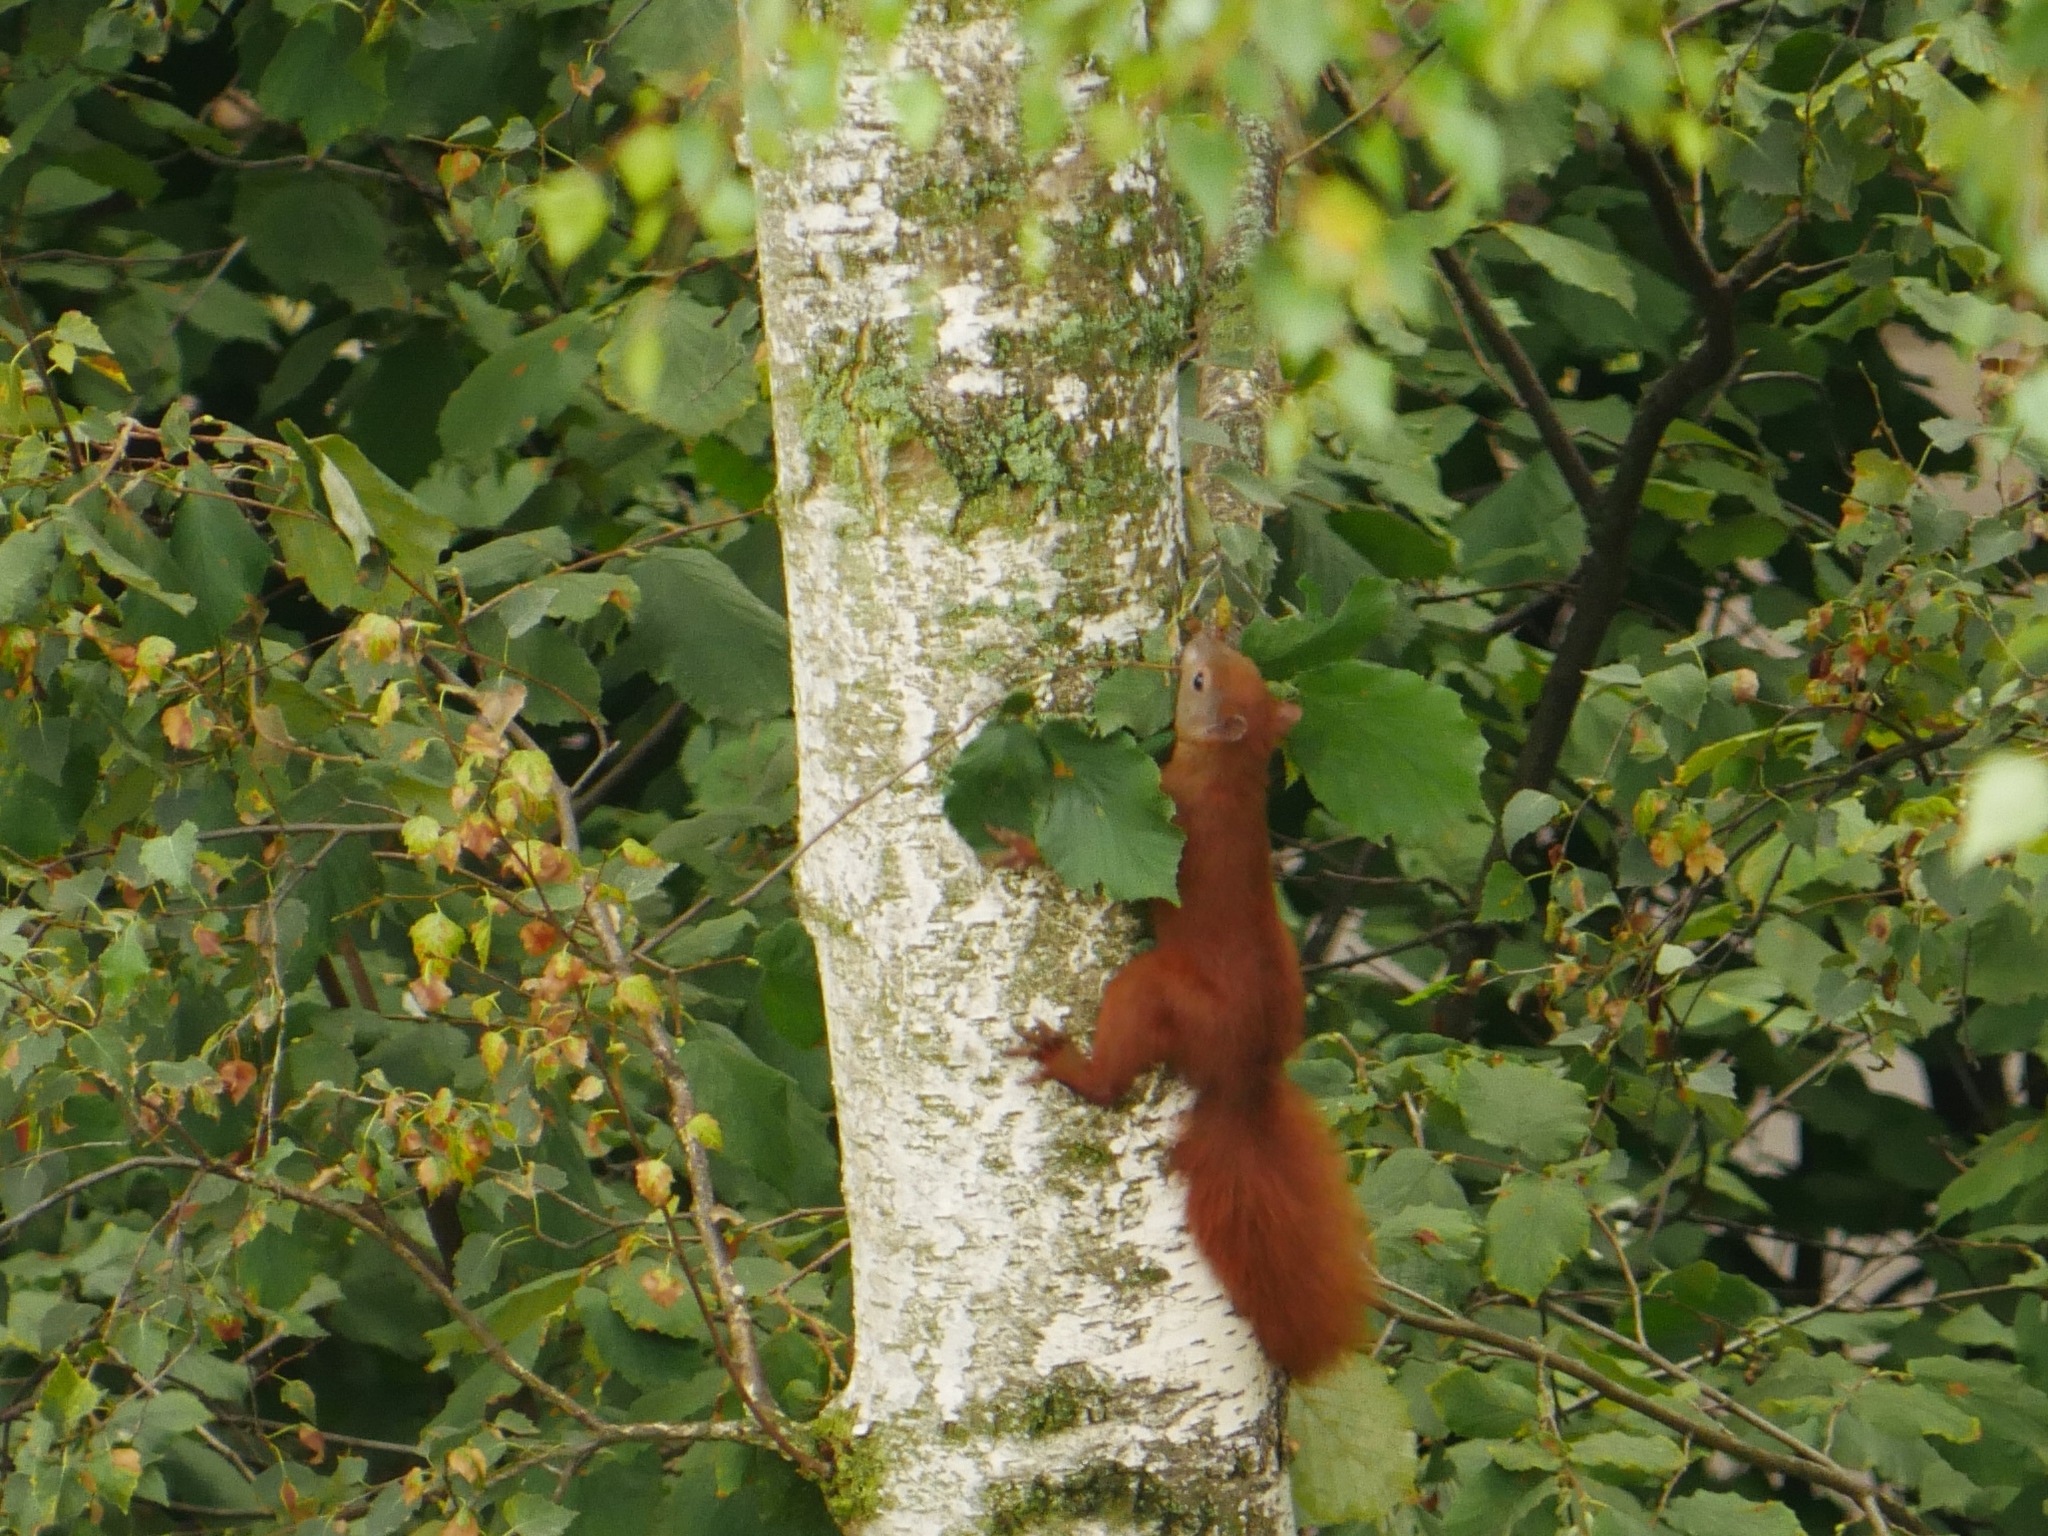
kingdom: Animalia
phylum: Chordata
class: Mammalia
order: Rodentia
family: Sciuridae
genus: Sciurus
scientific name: Sciurus vulgaris
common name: Eurasian red squirrel
